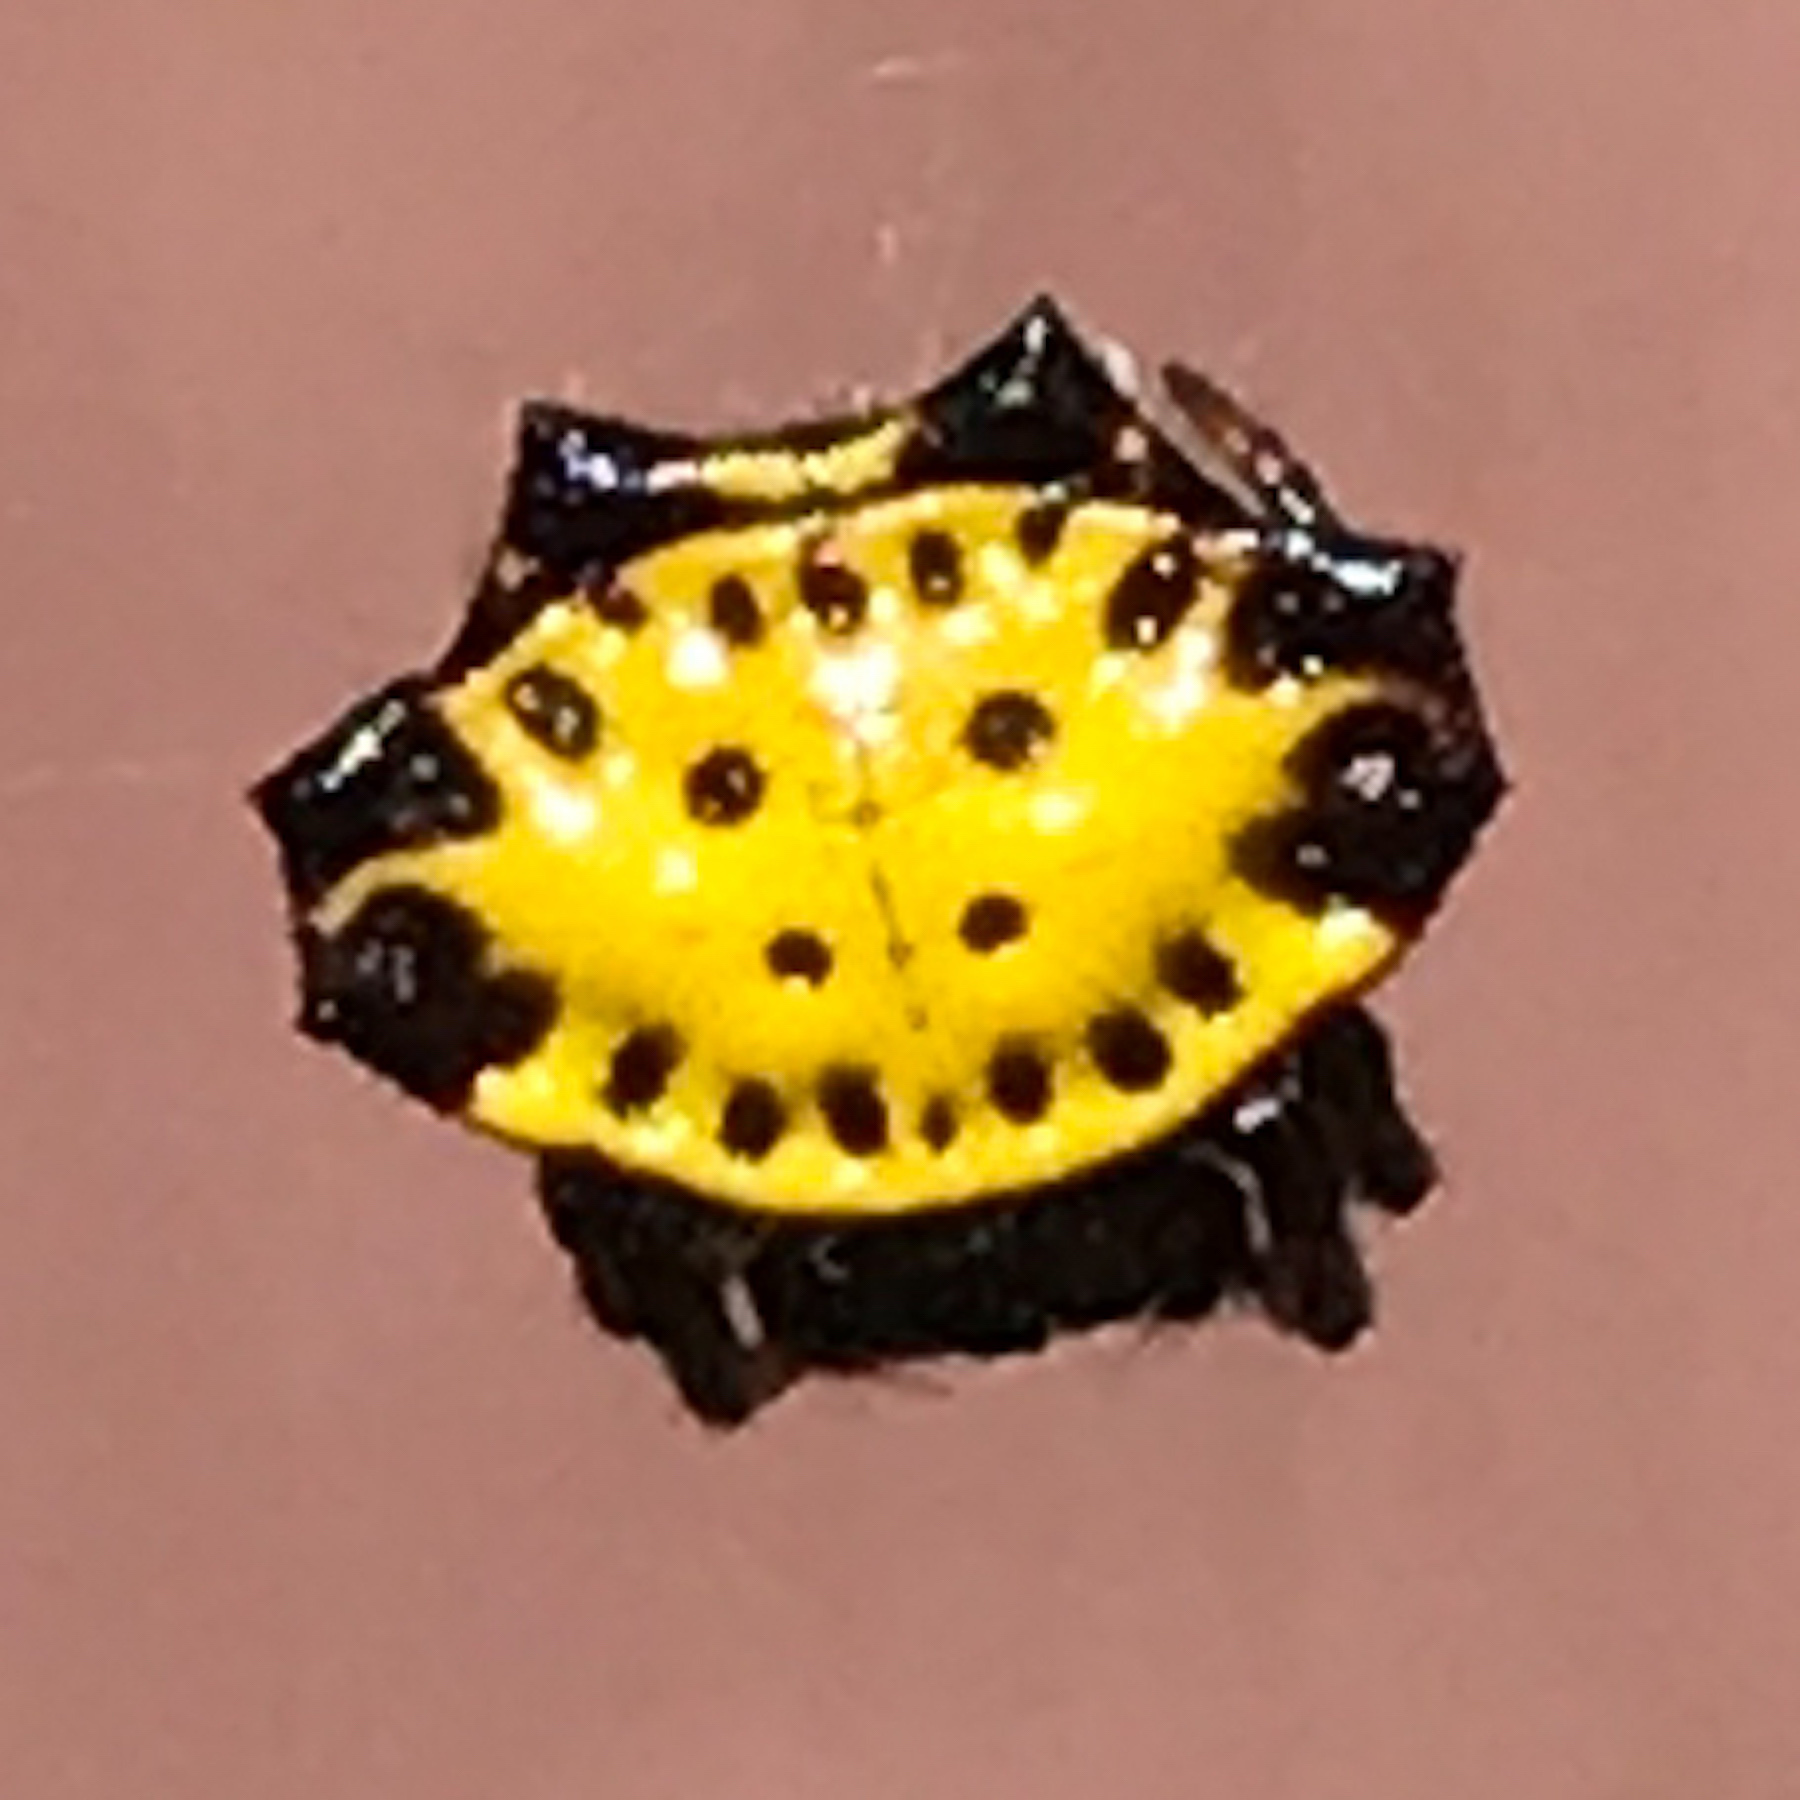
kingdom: Animalia
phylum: Arthropoda
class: Arachnida
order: Araneae
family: Araneidae
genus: Gasteracantha
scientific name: Gasteracantha cancriformis
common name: Orb weavers
